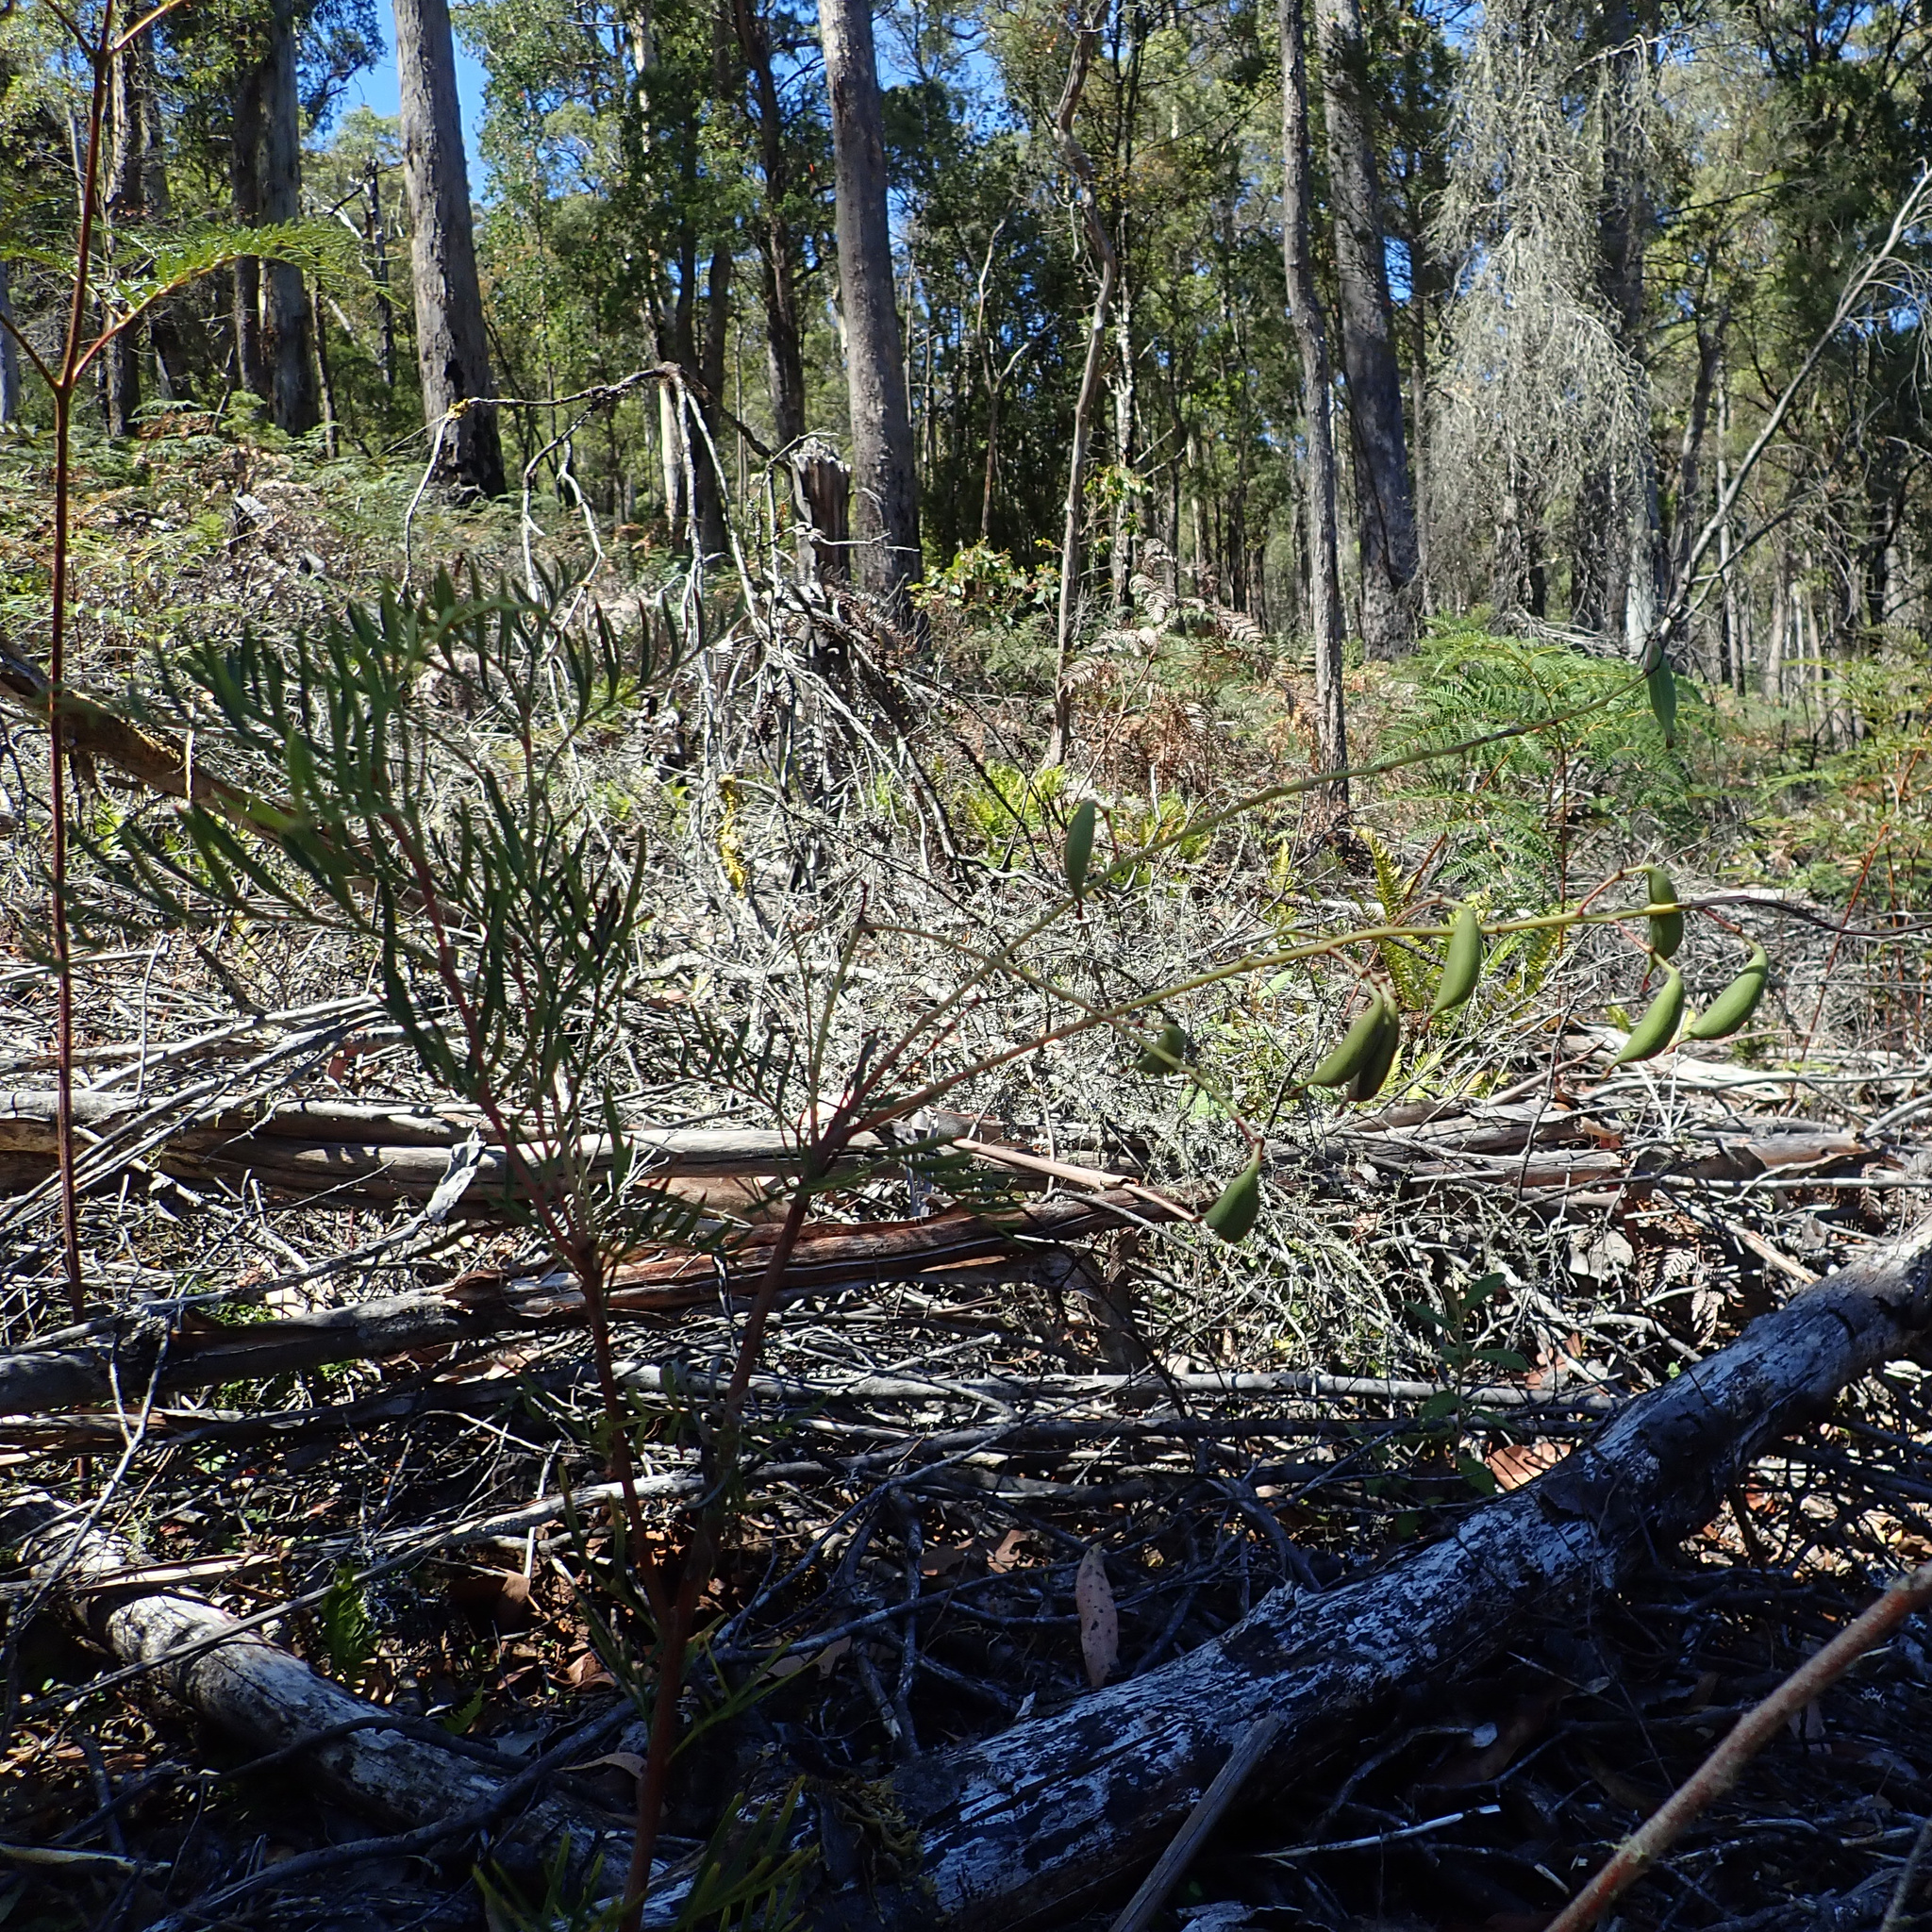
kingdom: Plantae
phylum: Tracheophyta
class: Magnoliopsida
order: Proteales
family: Proteaceae
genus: Lomatia
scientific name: Lomatia tinctoria
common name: Guitar plant
